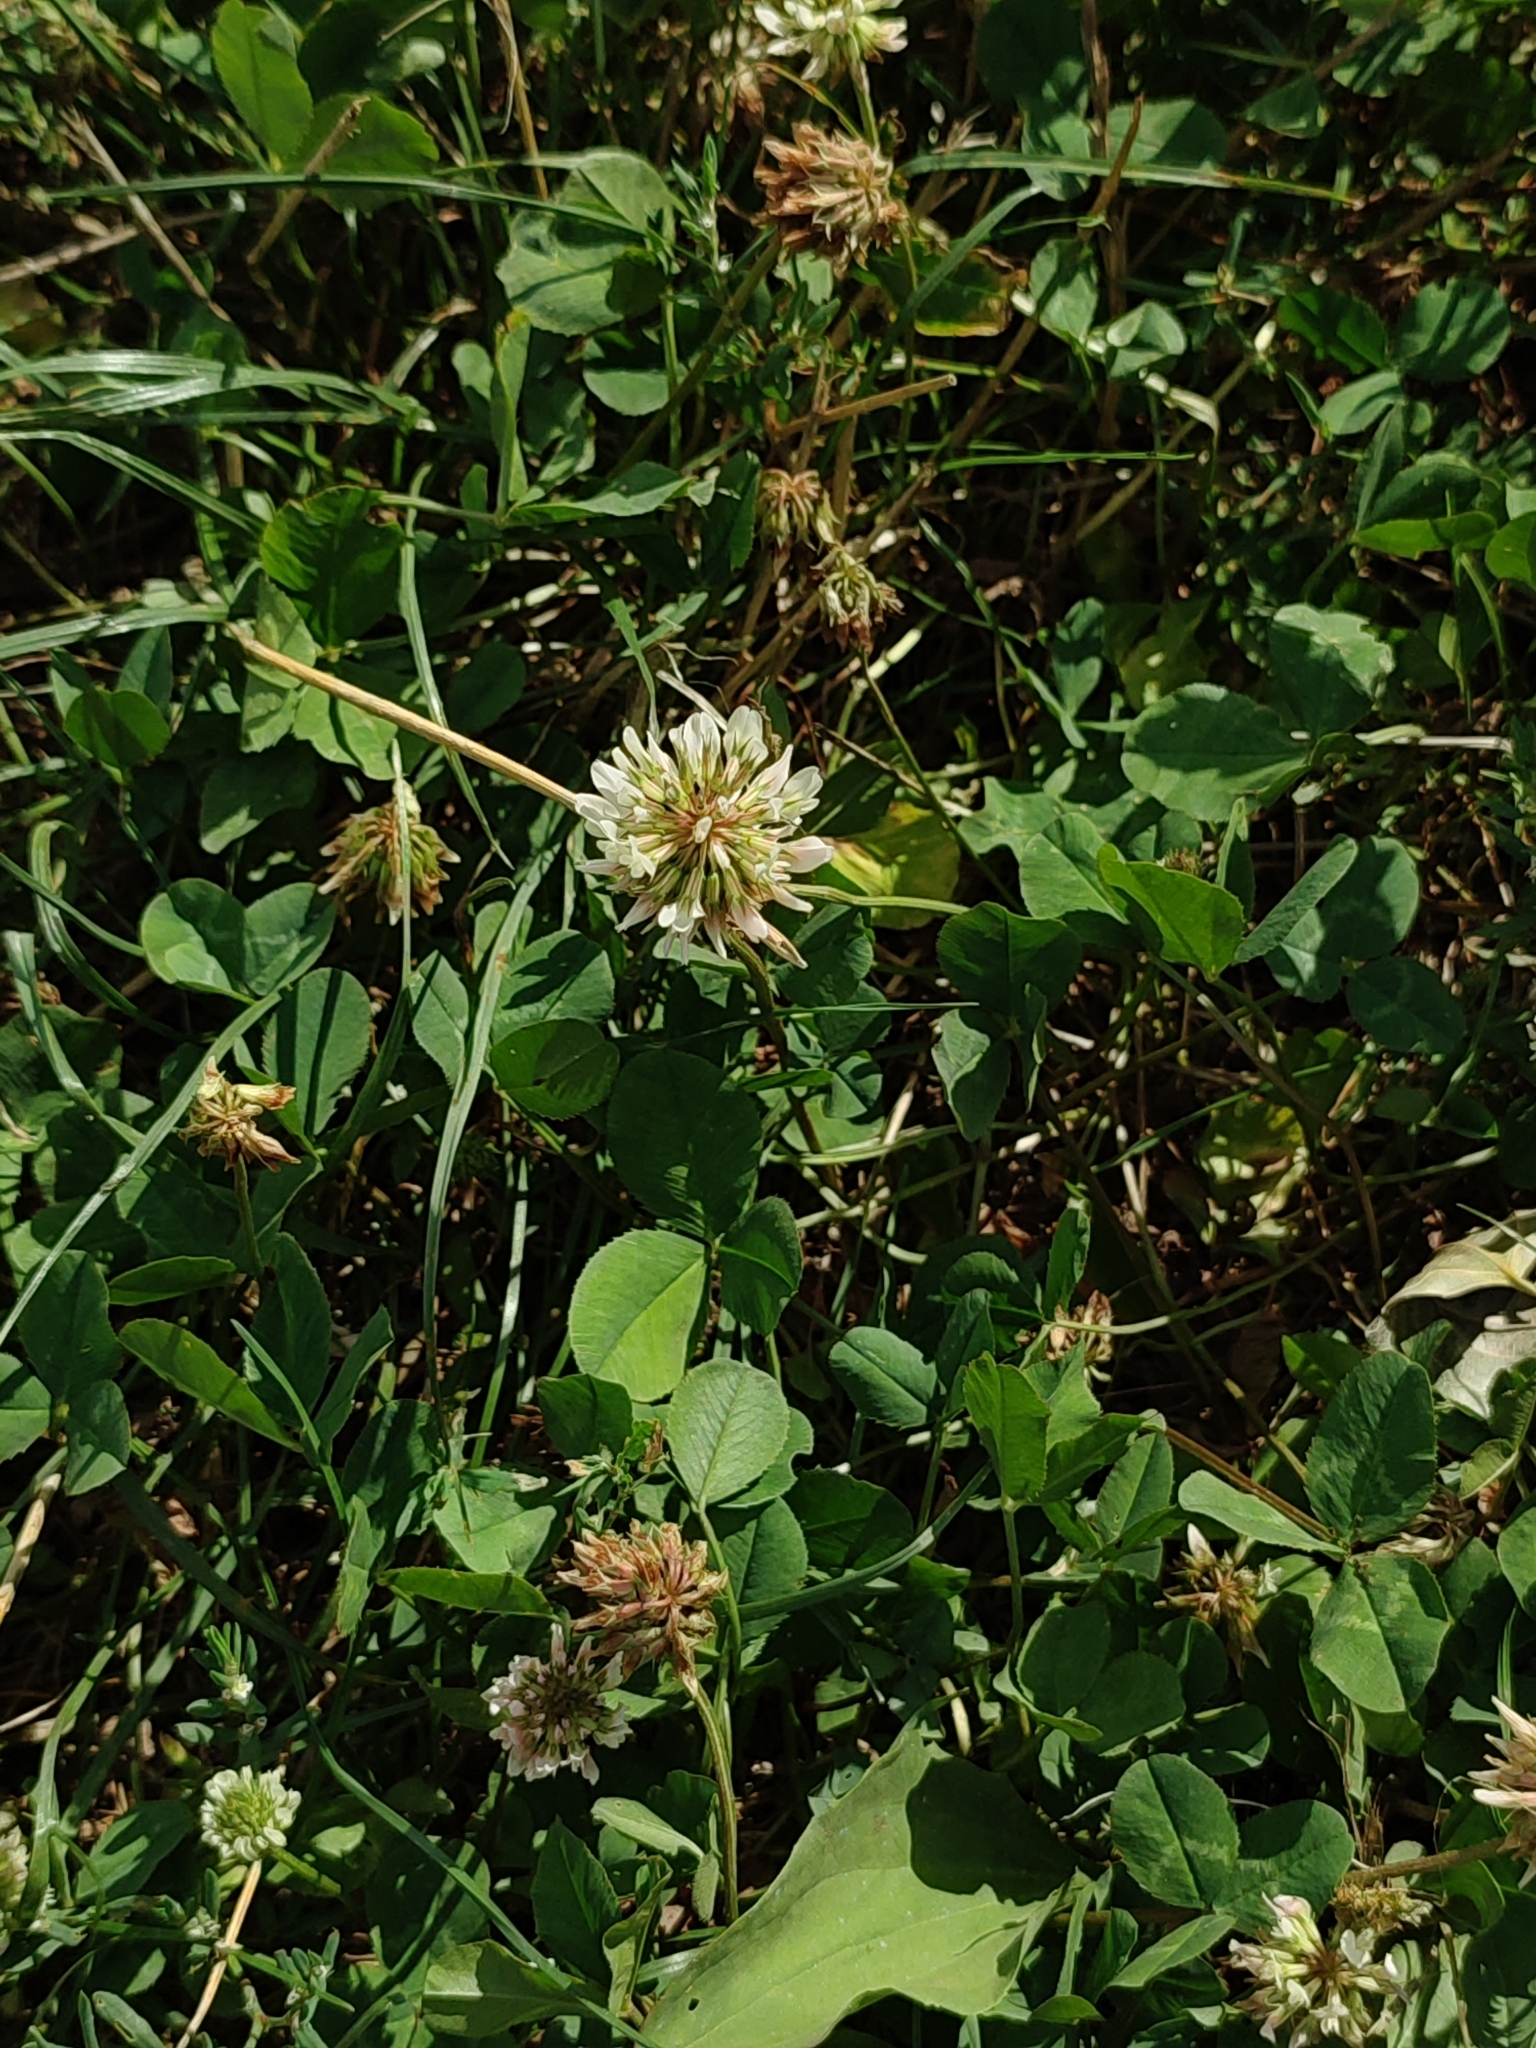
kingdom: Plantae
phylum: Tracheophyta
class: Magnoliopsida
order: Fabales
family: Fabaceae
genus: Trifolium
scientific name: Trifolium repens
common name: White clover
